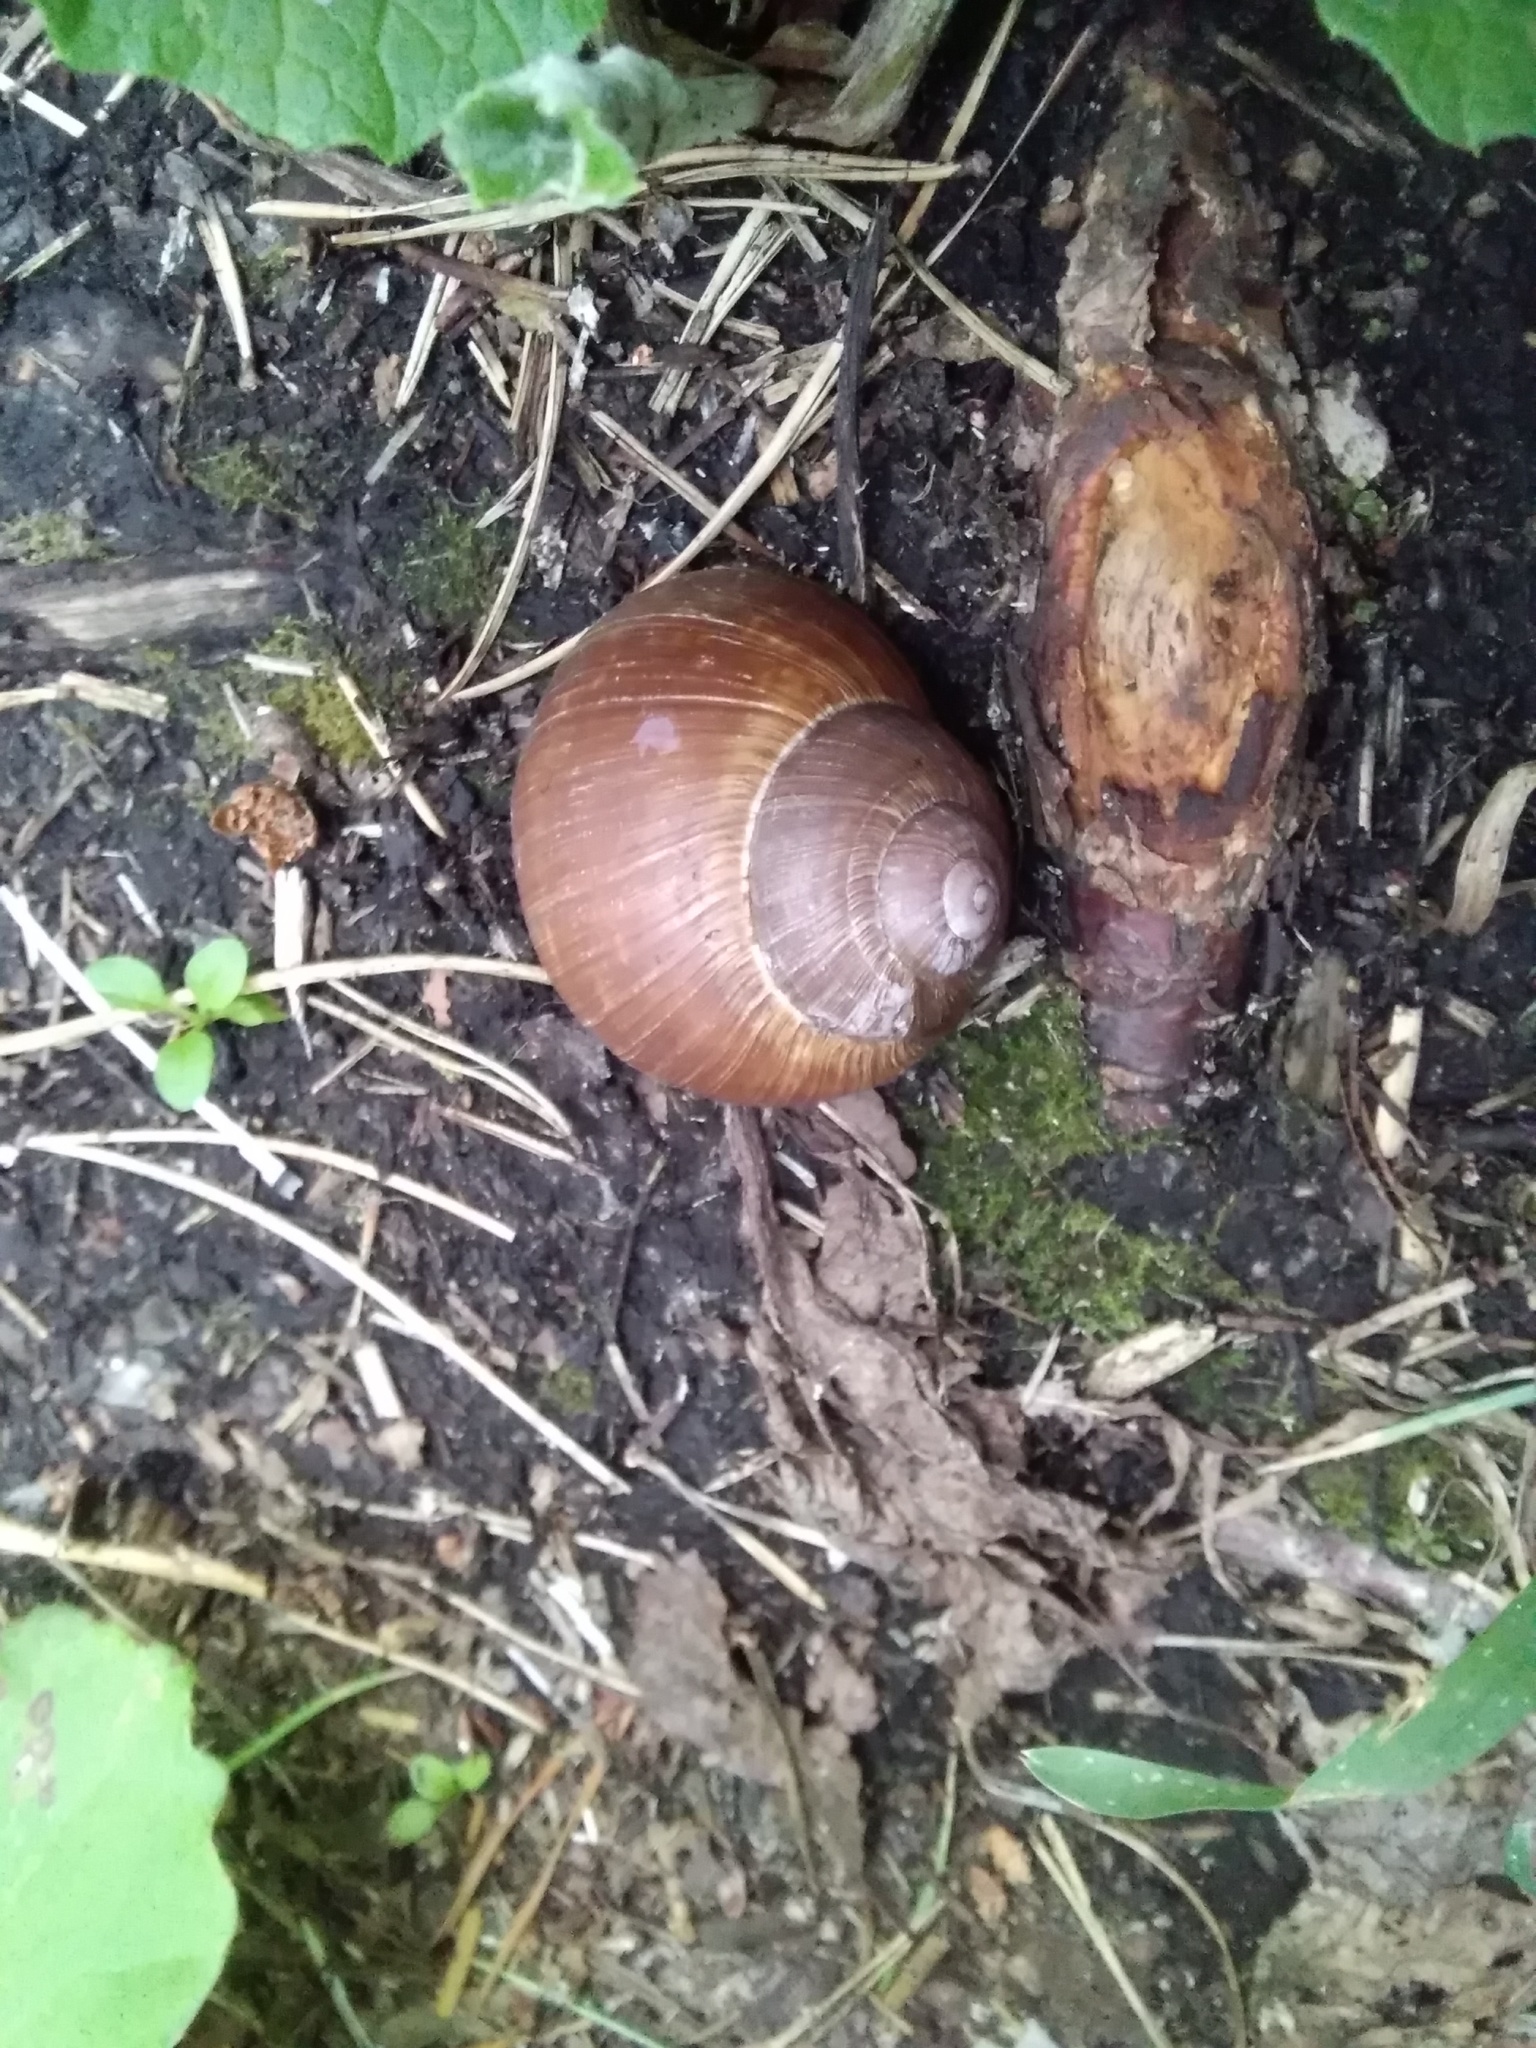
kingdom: Animalia
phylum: Mollusca
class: Gastropoda
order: Stylommatophora
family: Helicidae
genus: Helix
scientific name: Helix pomatia
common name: Roman snail
